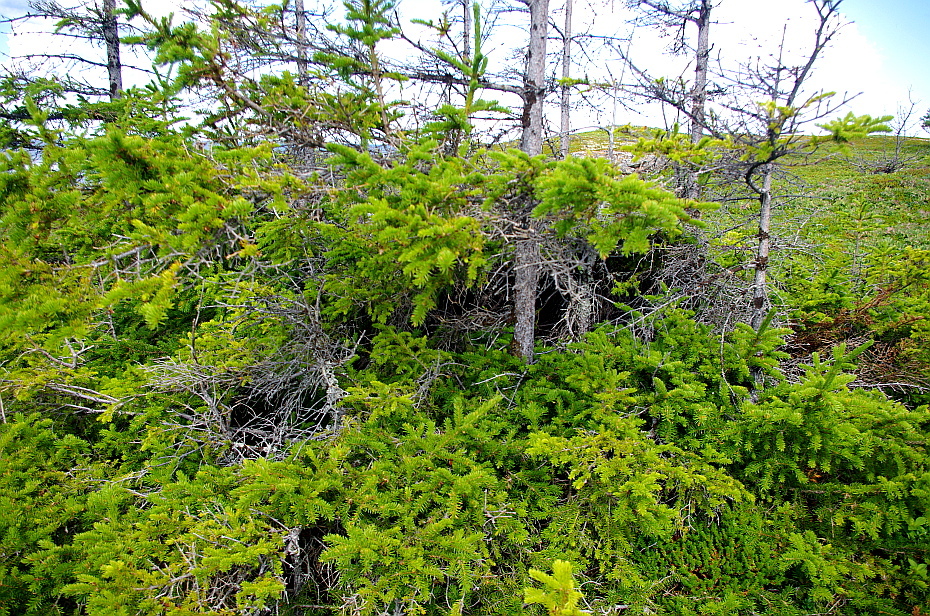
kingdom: Plantae
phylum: Tracheophyta
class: Pinopsida
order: Pinales
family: Pinaceae
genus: Picea
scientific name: Picea obovata
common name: Siberian spruce
